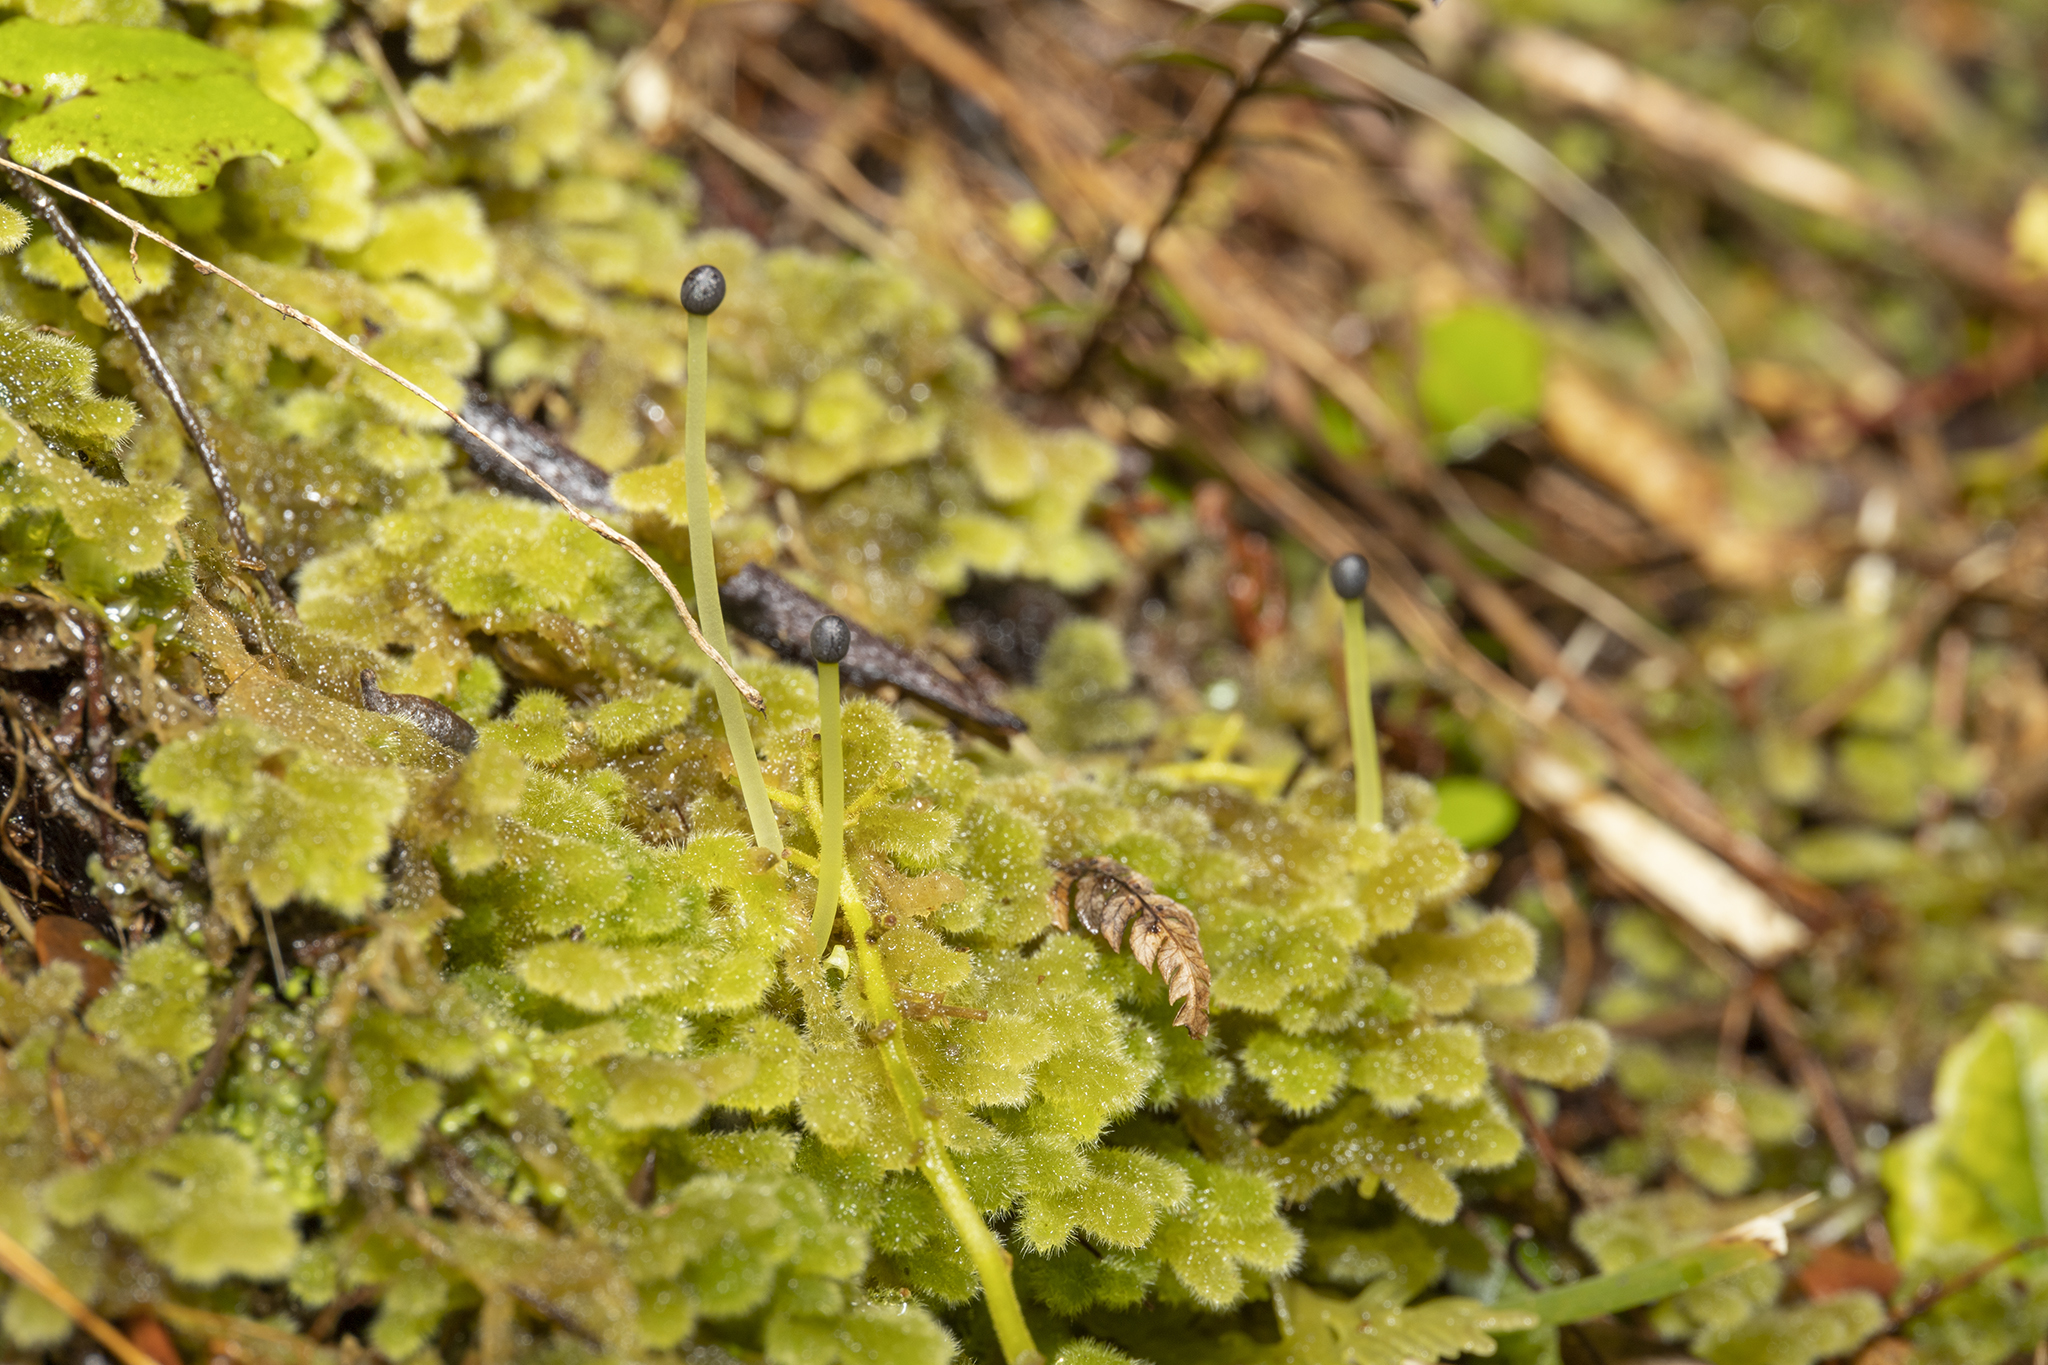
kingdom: Plantae
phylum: Marchantiophyta
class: Jungermanniopsida
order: Jungermanniales
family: Trichocoleaceae
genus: Leiomitra
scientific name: Leiomitra lanata
